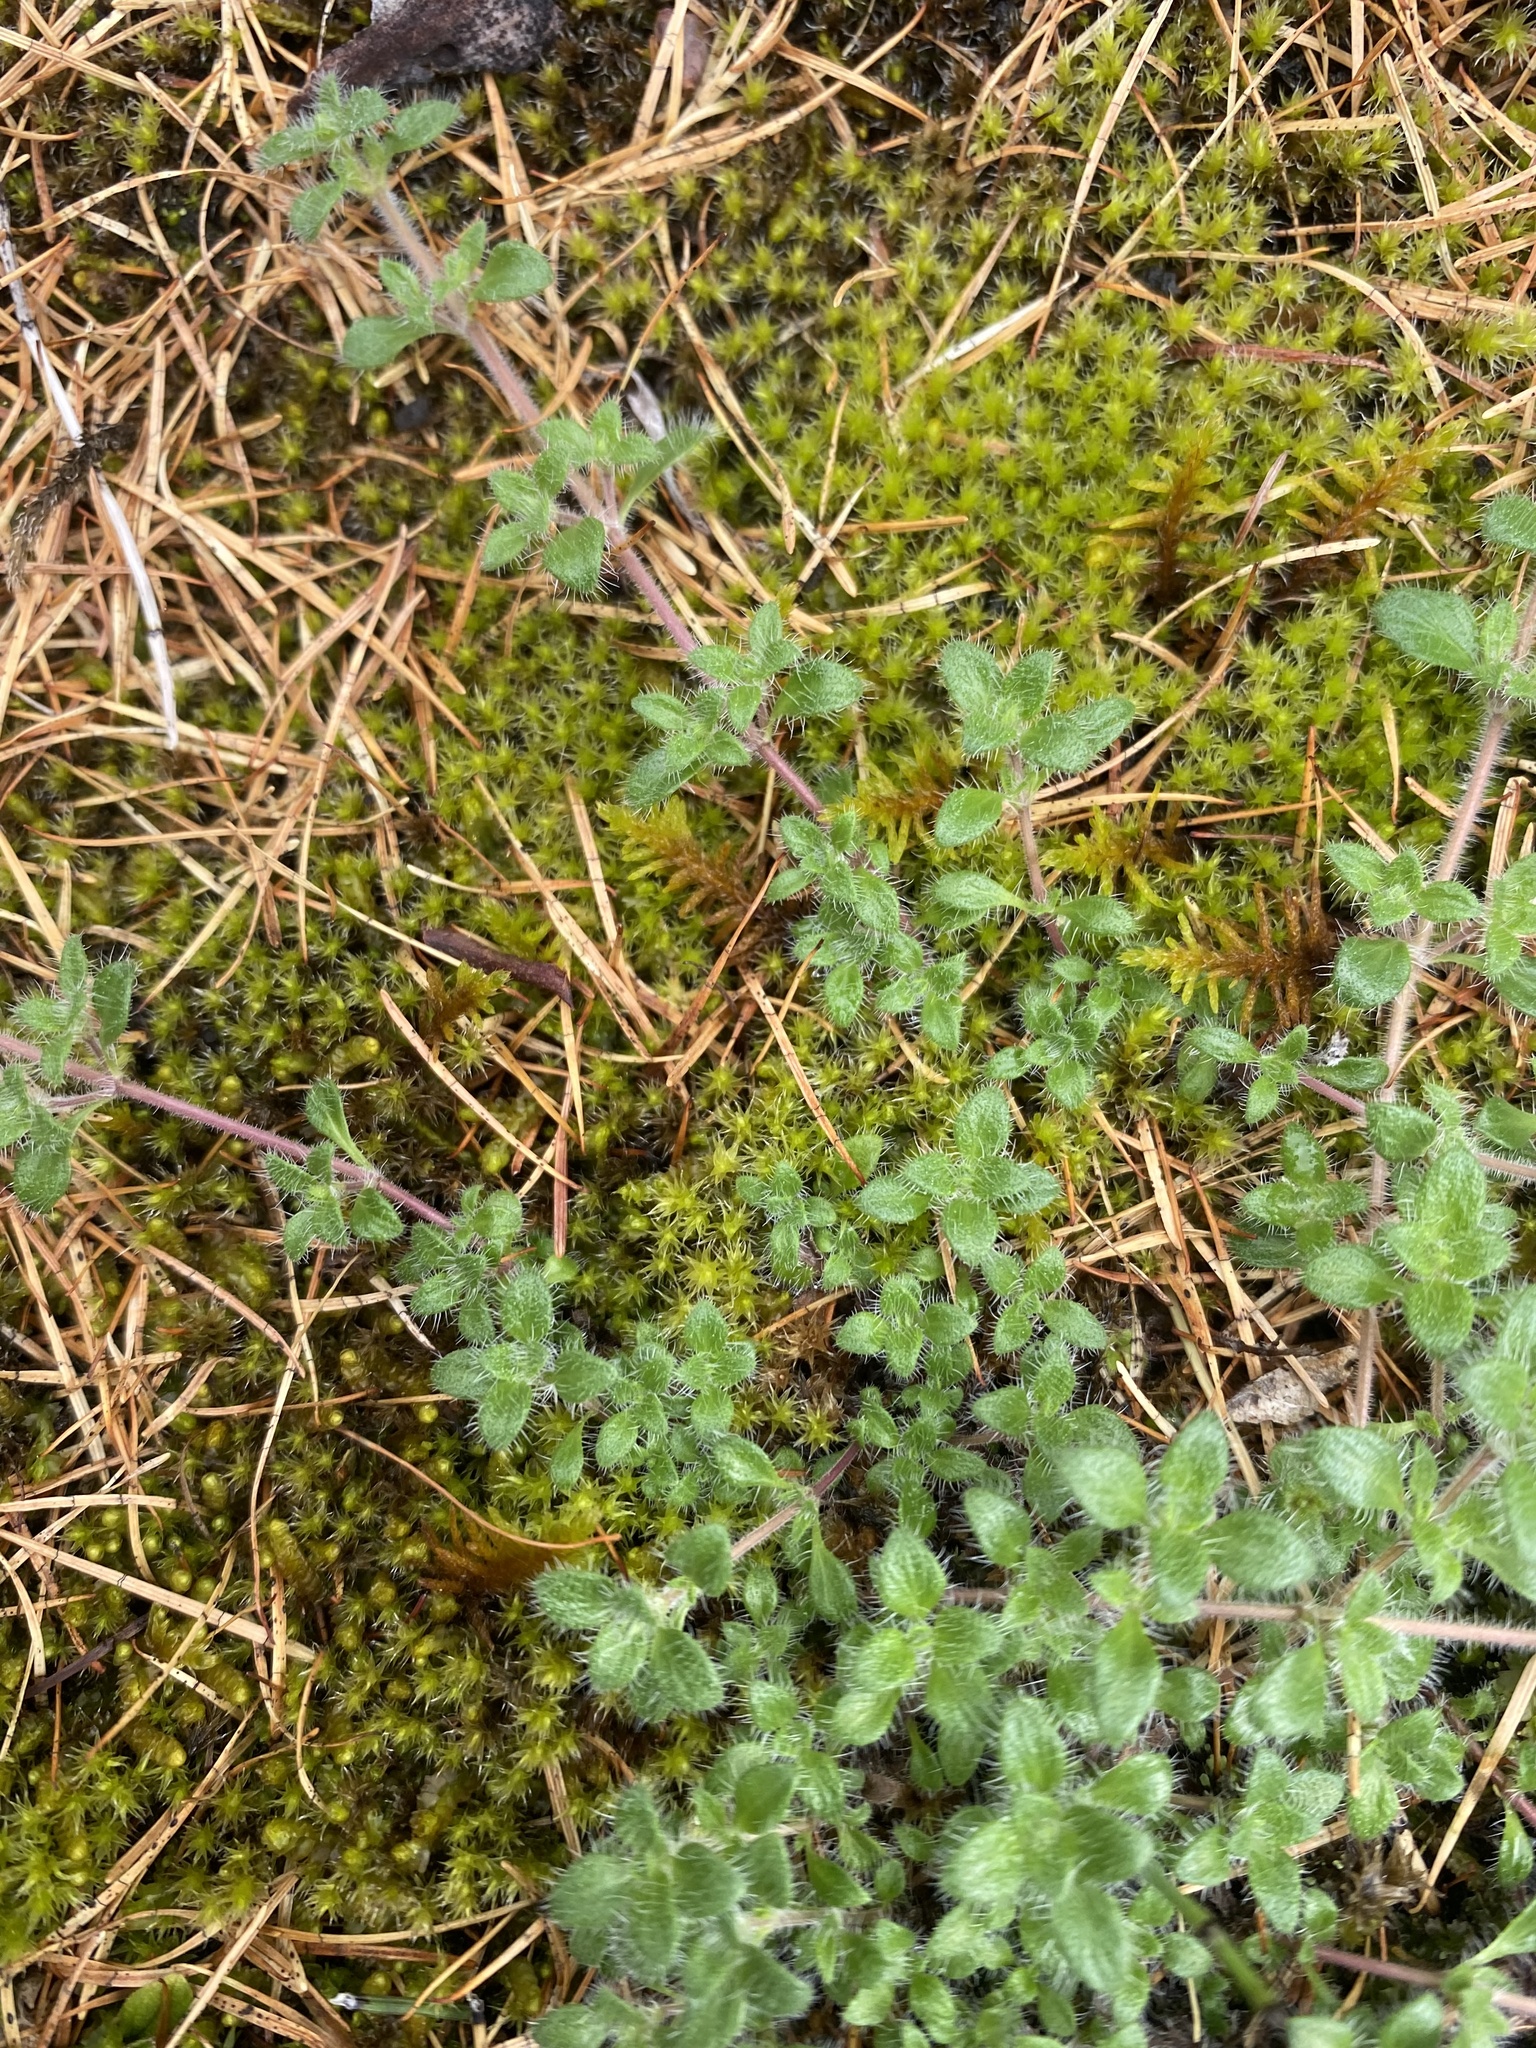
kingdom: Plantae
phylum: Tracheophyta
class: Magnoliopsida
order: Lamiales
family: Lamiaceae
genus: Thymus
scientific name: Thymus extremus
